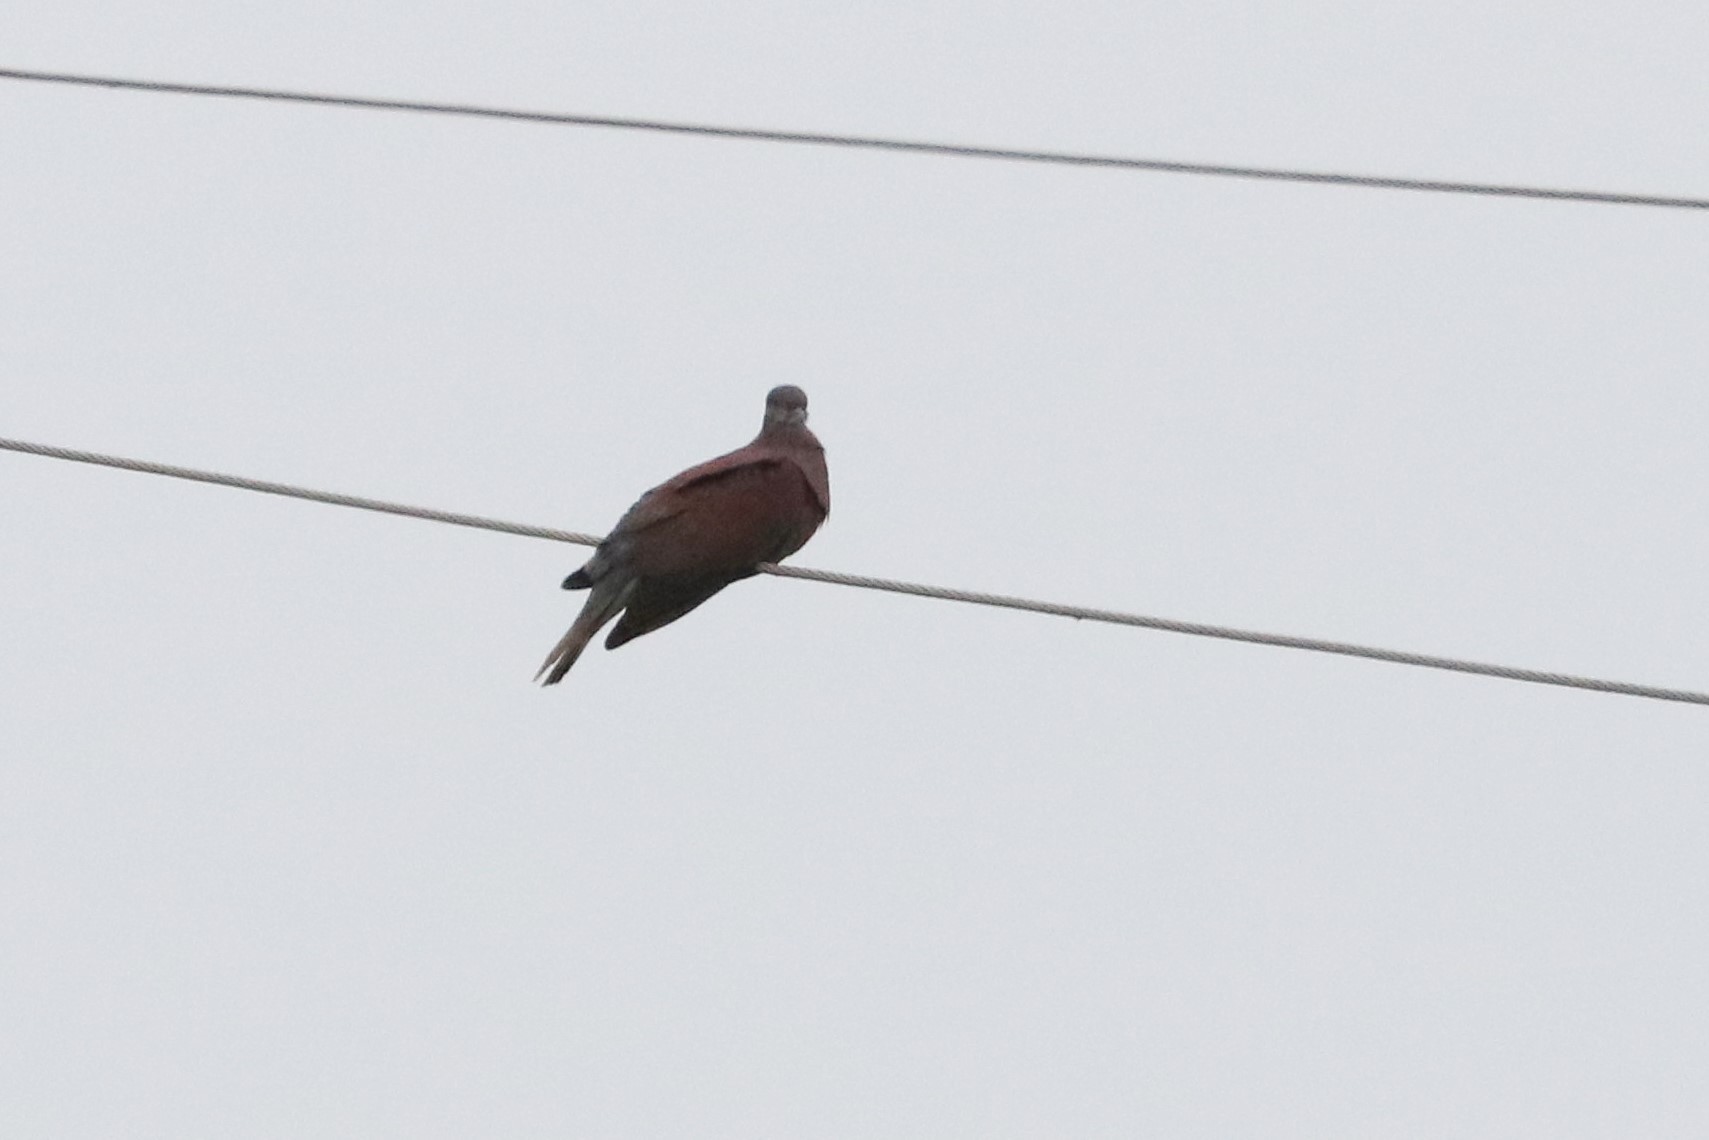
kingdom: Animalia
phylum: Chordata
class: Aves
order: Columbiformes
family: Columbidae
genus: Patagioenas
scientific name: Patagioenas cayennensis
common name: Pale-vented pigeon
